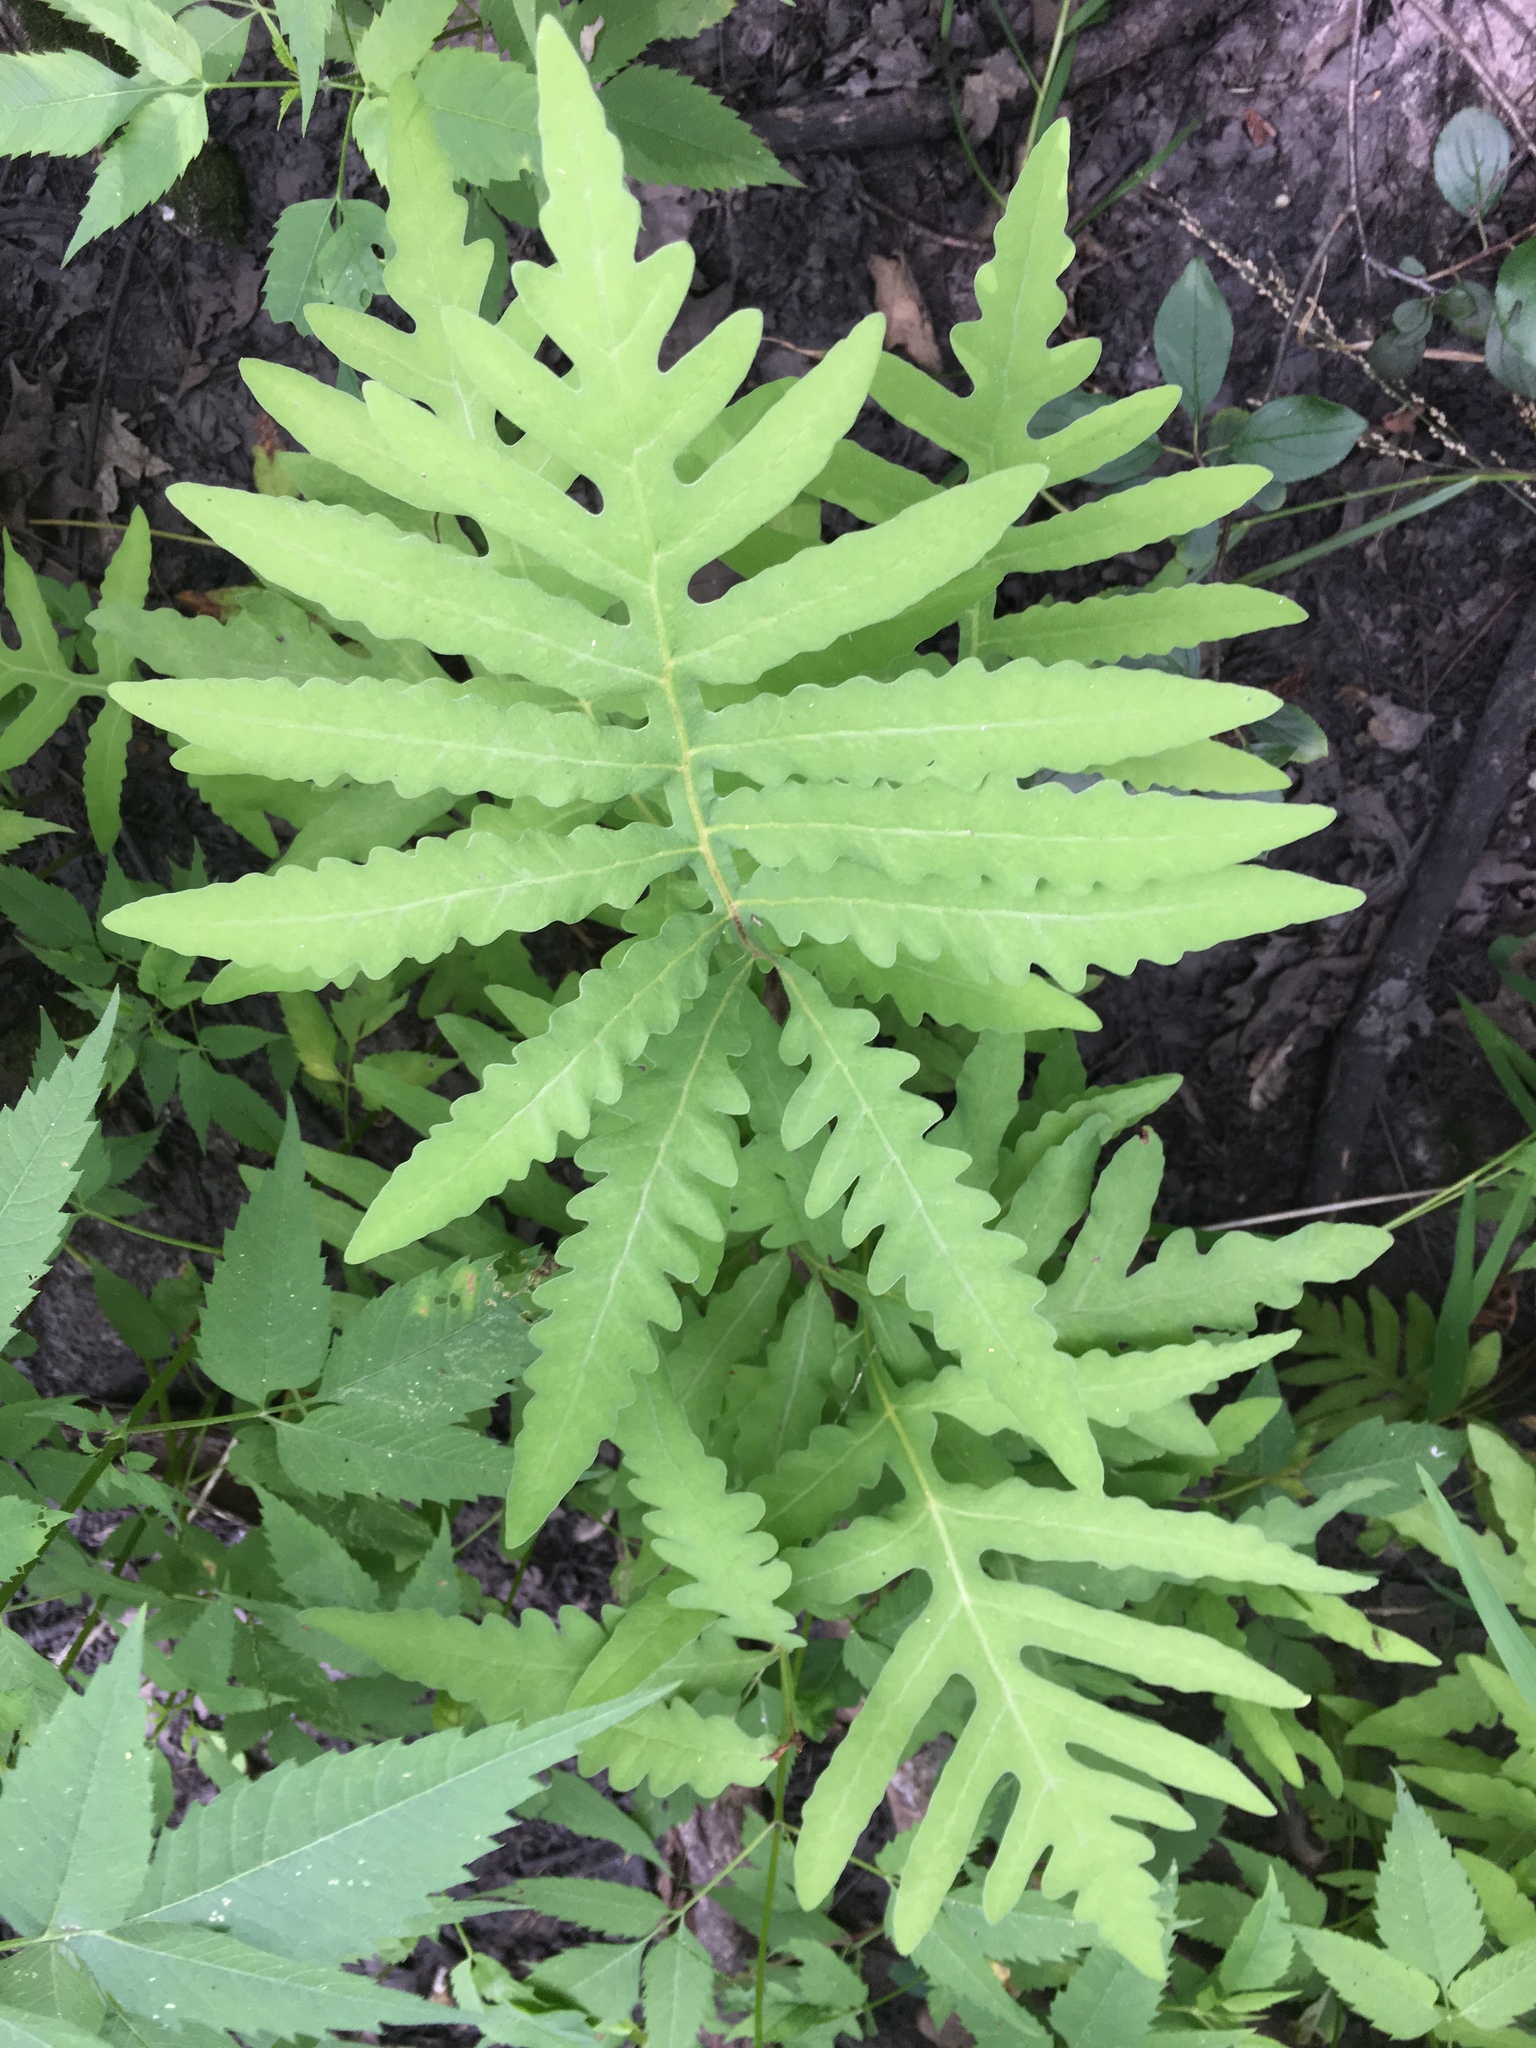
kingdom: Plantae
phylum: Tracheophyta
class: Polypodiopsida
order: Polypodiales
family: Onocleaceae
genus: Onoclea
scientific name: Onoclea sensibilis
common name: Sensitive fern
